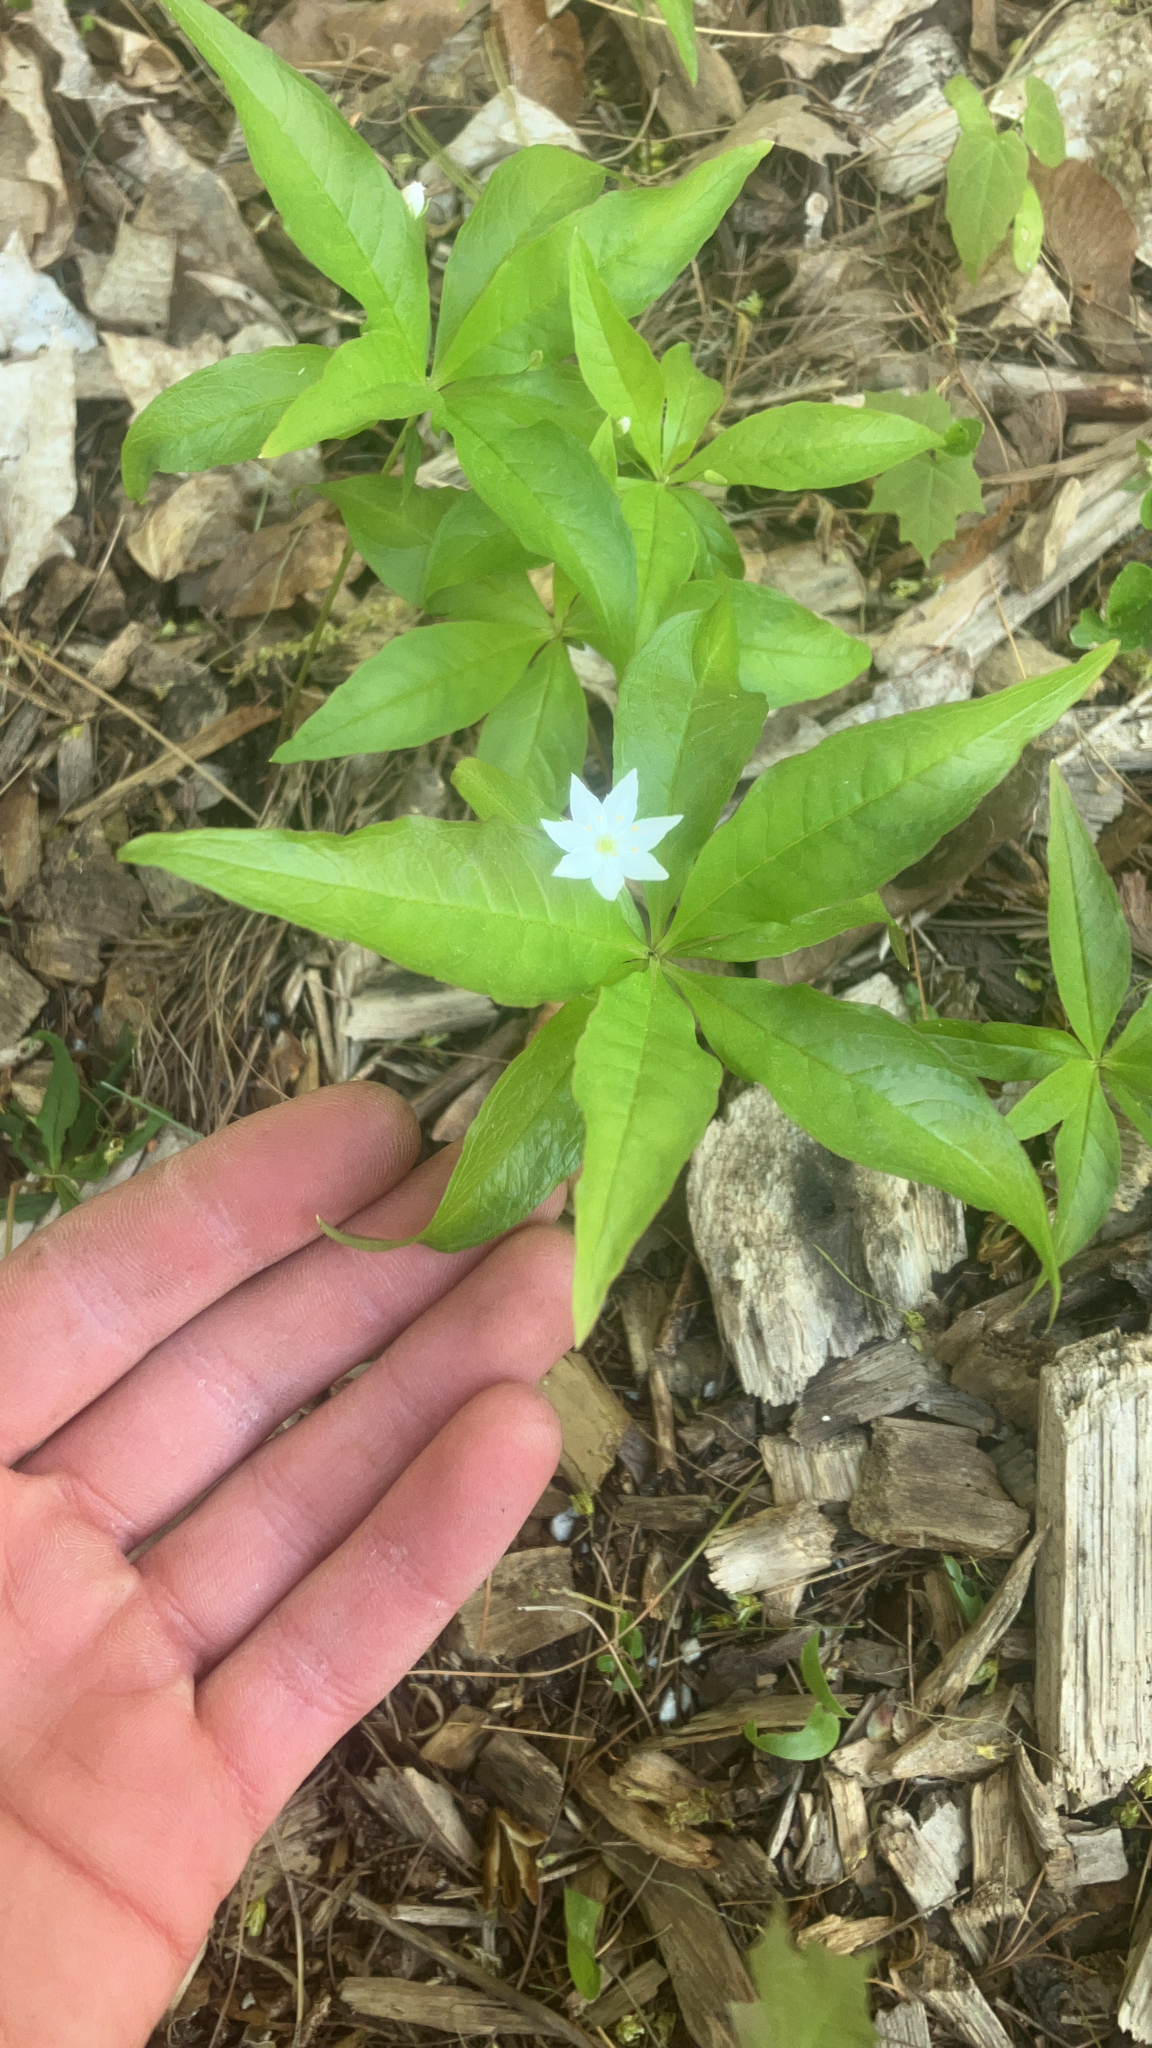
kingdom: Plantae
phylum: Tracheophyta
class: Magnoliopsida
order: Ericales
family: Primulaceae
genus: Lysimachia
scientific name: Lysimachia borealis
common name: American starflower
